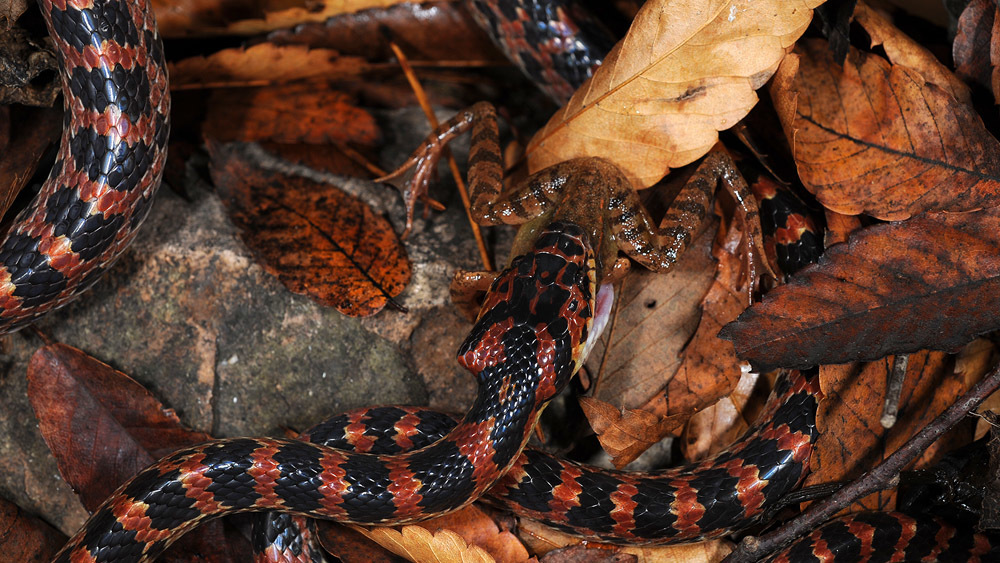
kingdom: Animalia
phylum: Chordata
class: Squamata
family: Colubridae
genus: Lycodon
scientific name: Lycodon rufozonatus
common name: Red-banded snake
